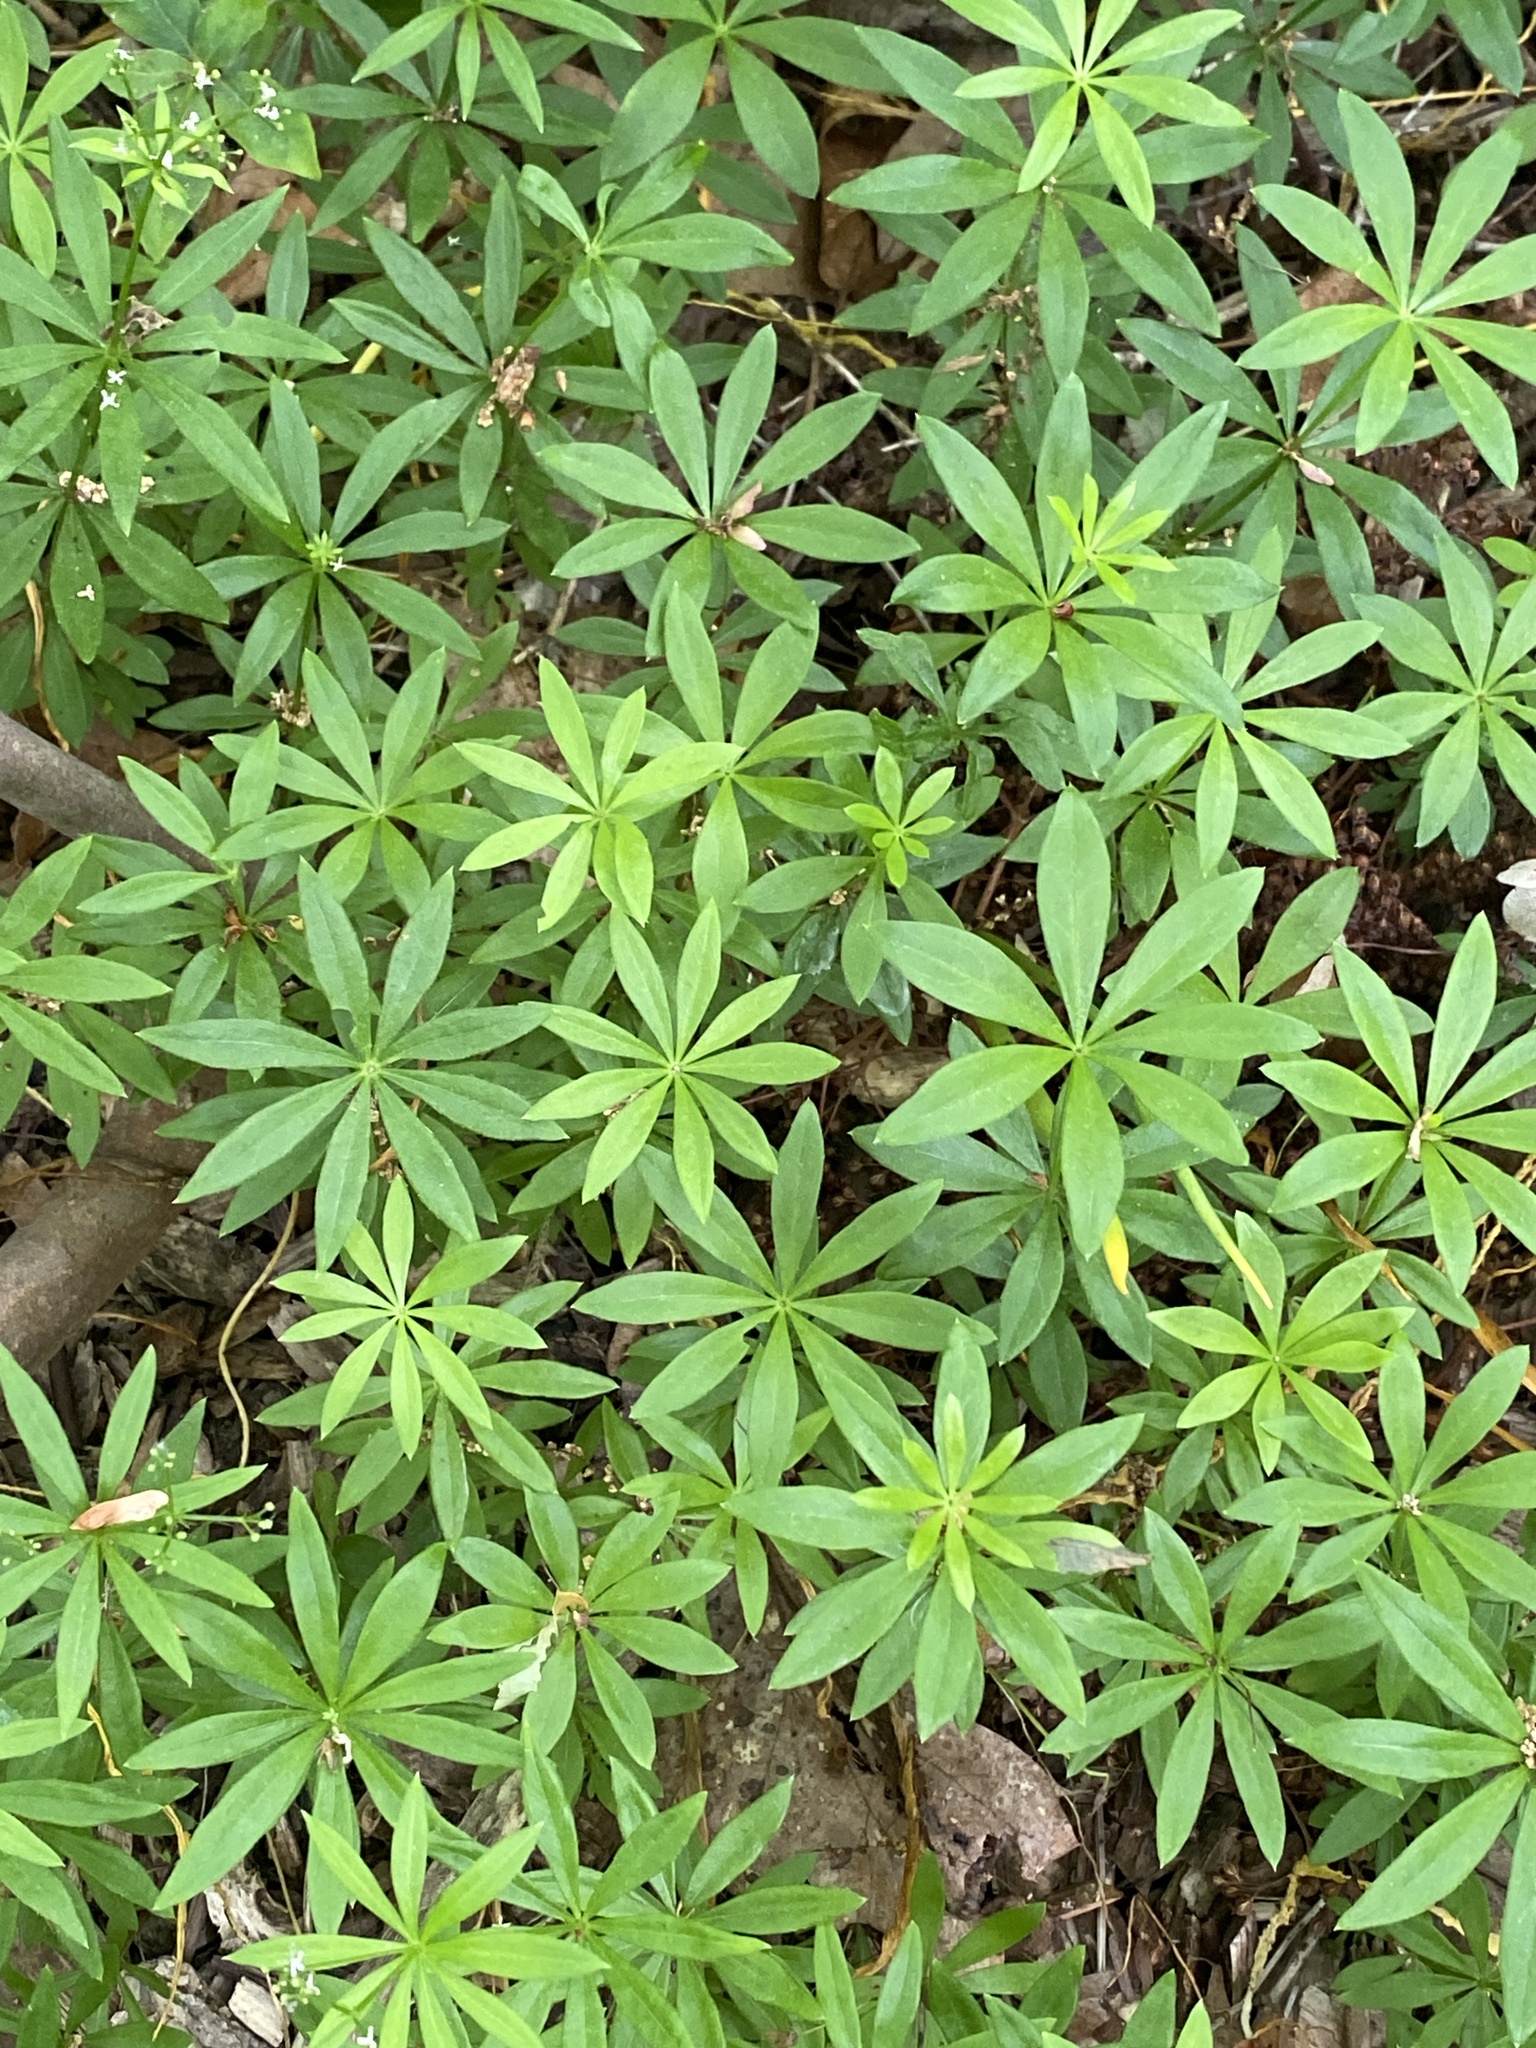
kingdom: Plantae
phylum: Tracheophyta
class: Magnoliopsida
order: Gentianales
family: Rubiaceae
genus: Galium
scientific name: Galium odoratum
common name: Sweet woodruff
